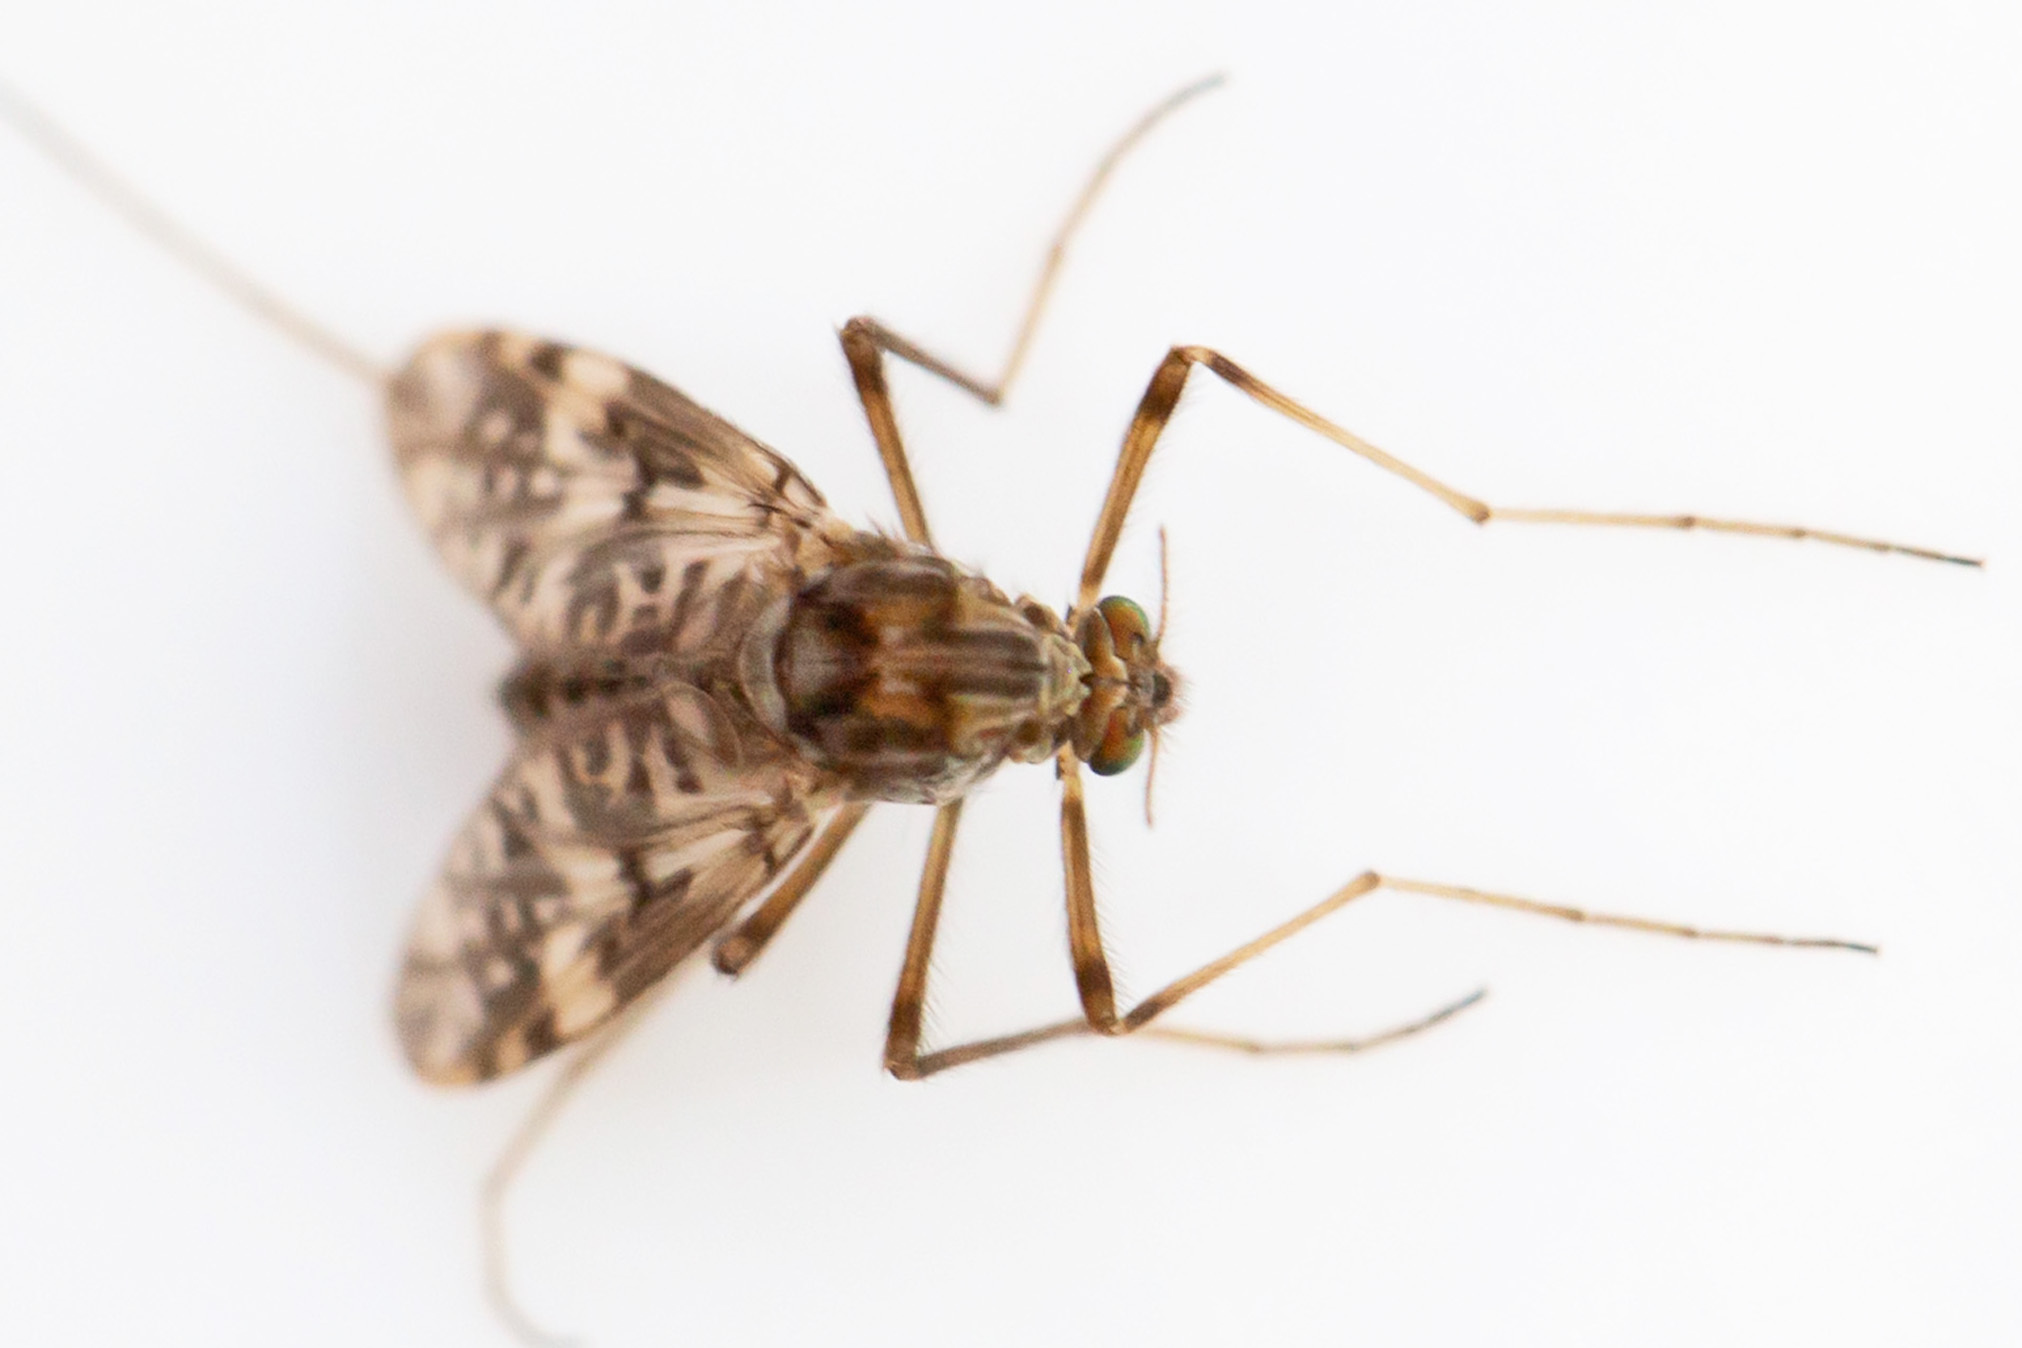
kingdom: Animalia
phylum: Arthropoda
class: Insecta
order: Diptera
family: Chironomidae
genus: Psectrotanypus
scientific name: Psectrotanypus dyari
